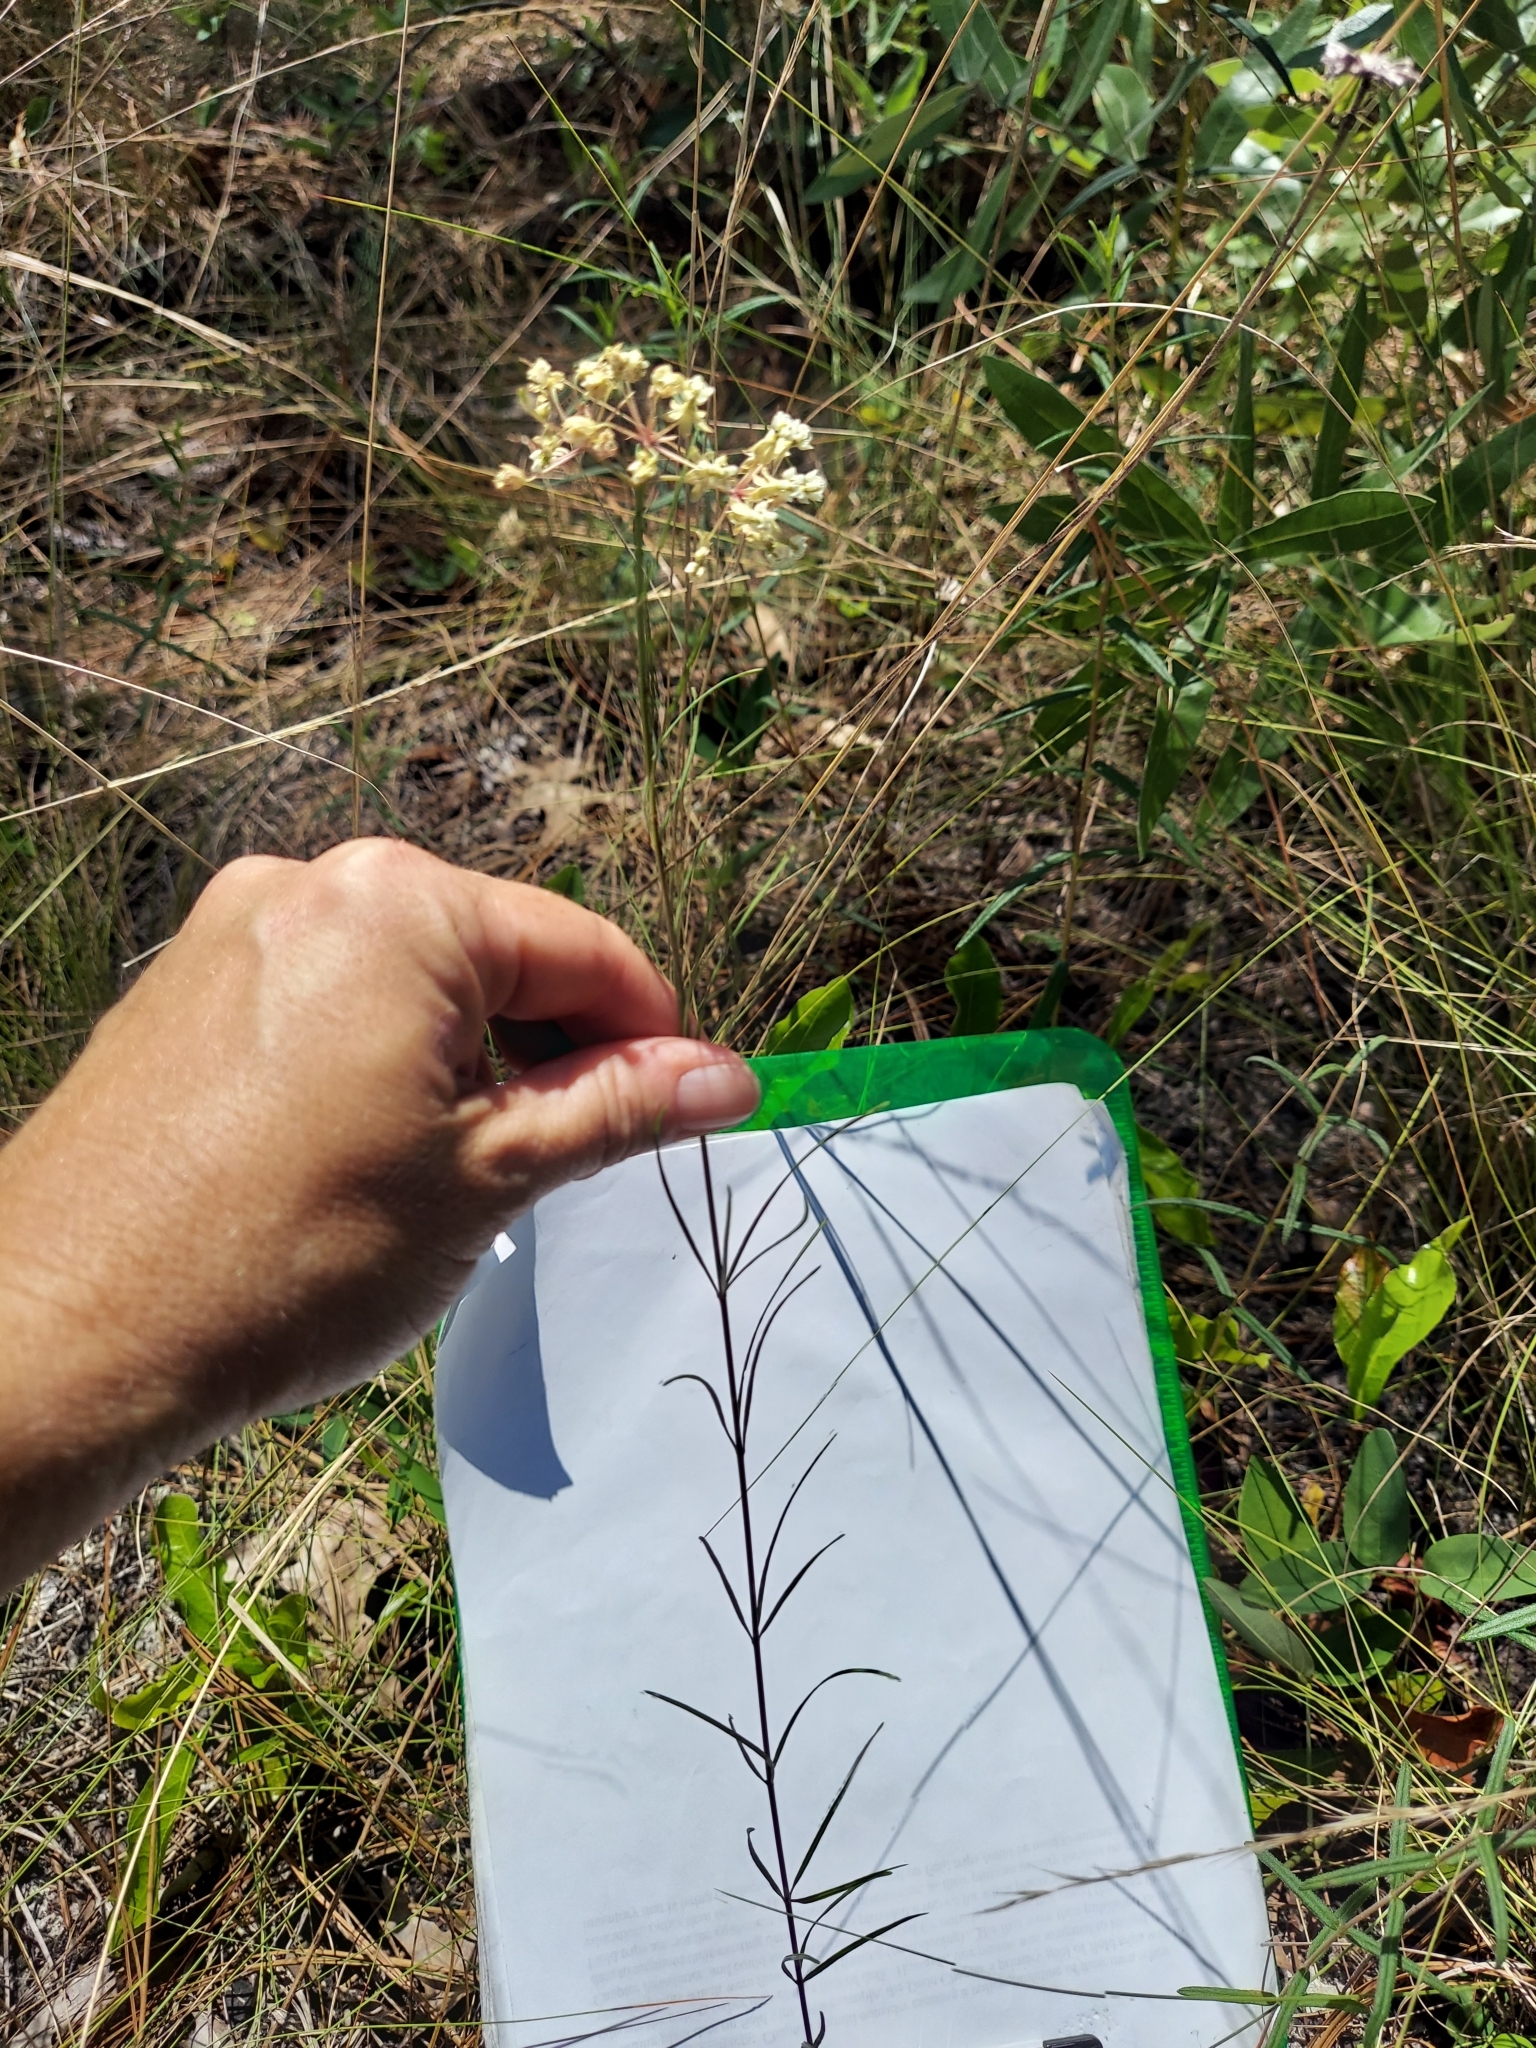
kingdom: Plantae
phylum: Tracheophyta
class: Magnoliopsida
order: Gentianales
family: Apocynaceae
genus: Asclepias
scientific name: Asclepias verticillata
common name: Eastern whorled milkweed
